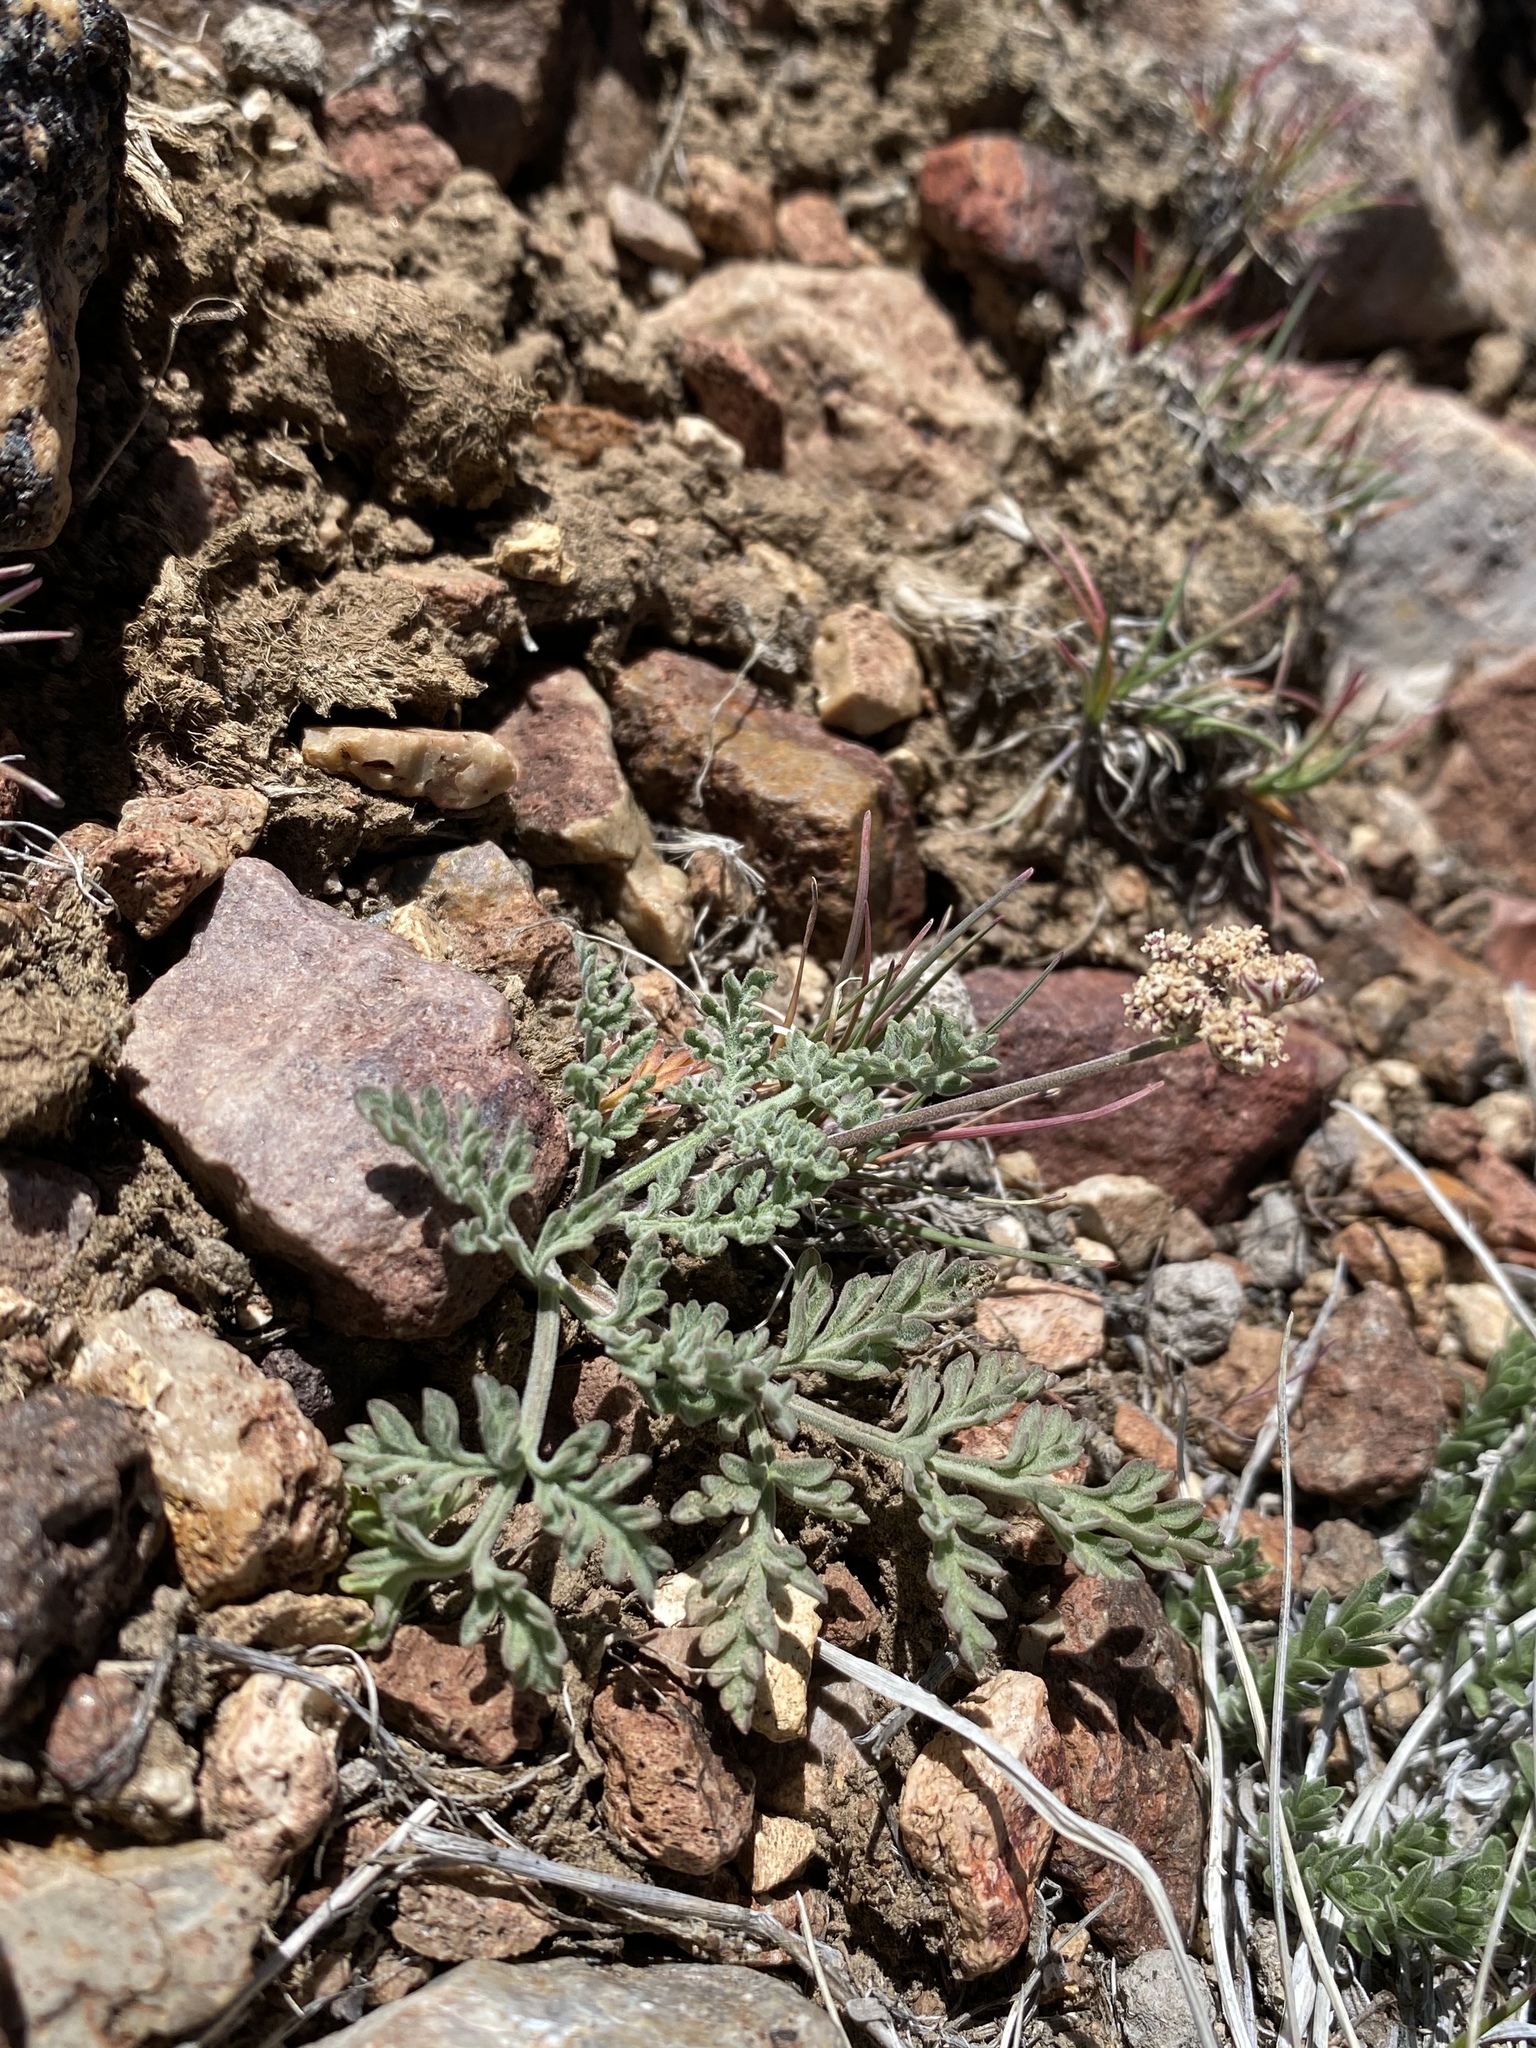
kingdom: Plantae
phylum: Tracheophyta
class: Magnoliopsida
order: Apiales
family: Apiaceae
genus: Lomatium
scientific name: Lomatium nevadense
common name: Nevada lomatium
